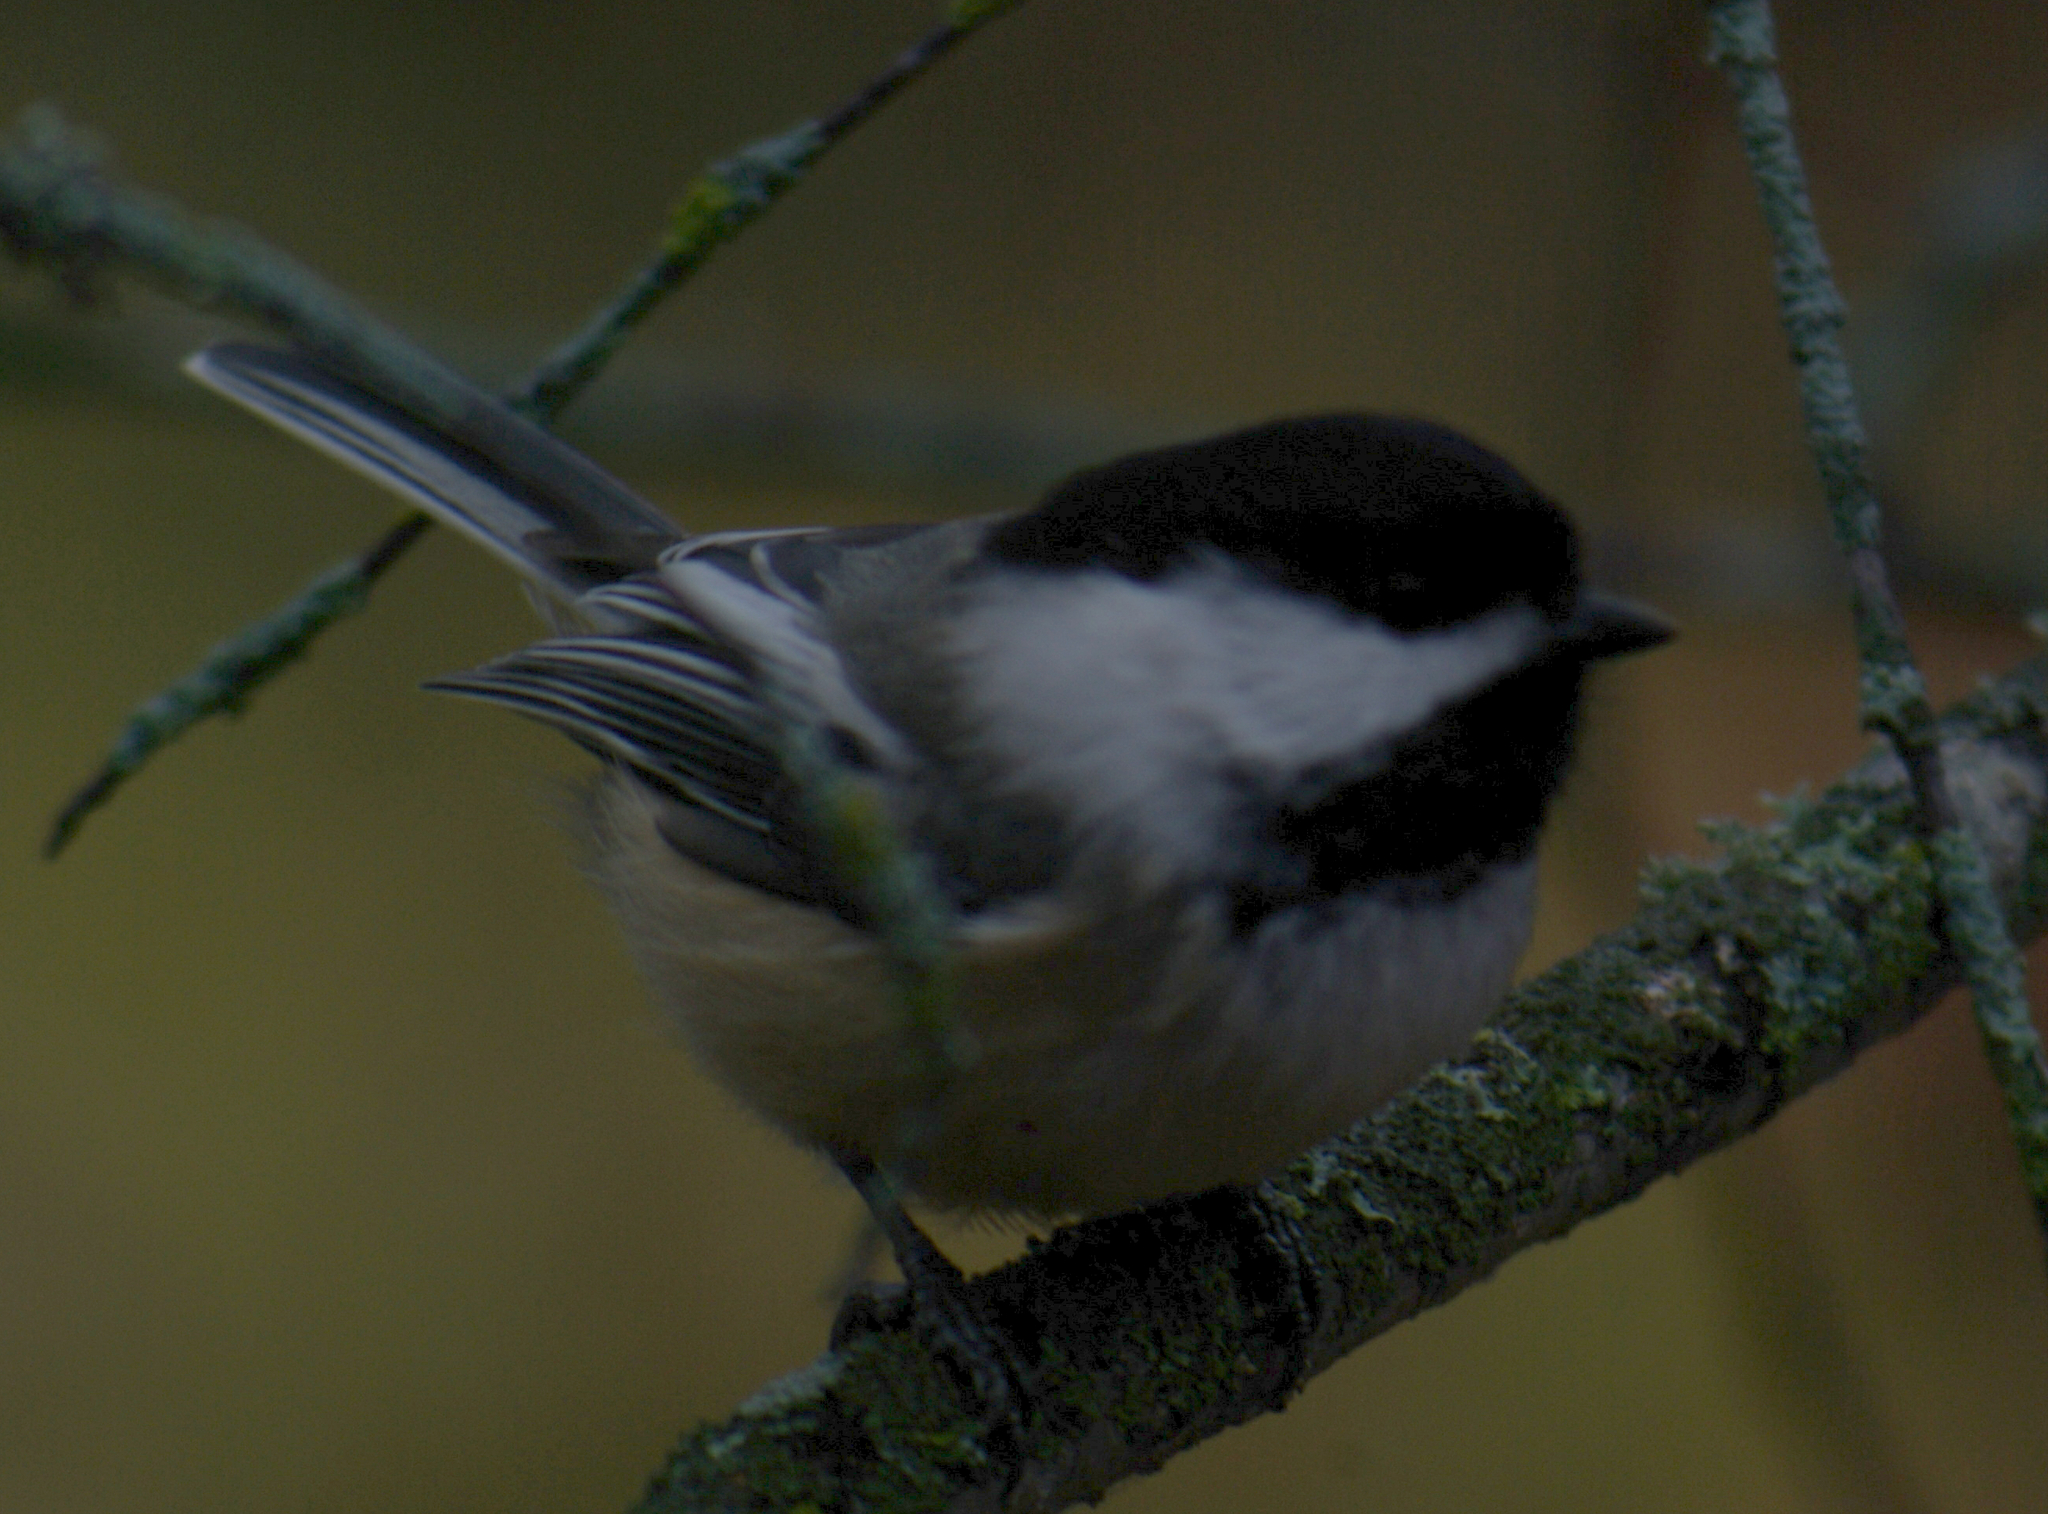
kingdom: Animalia
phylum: Chordata
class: Aves
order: Passeriformes
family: Paridae
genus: Poecile
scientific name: Poecile atricapillus
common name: Black-capped chickadee
